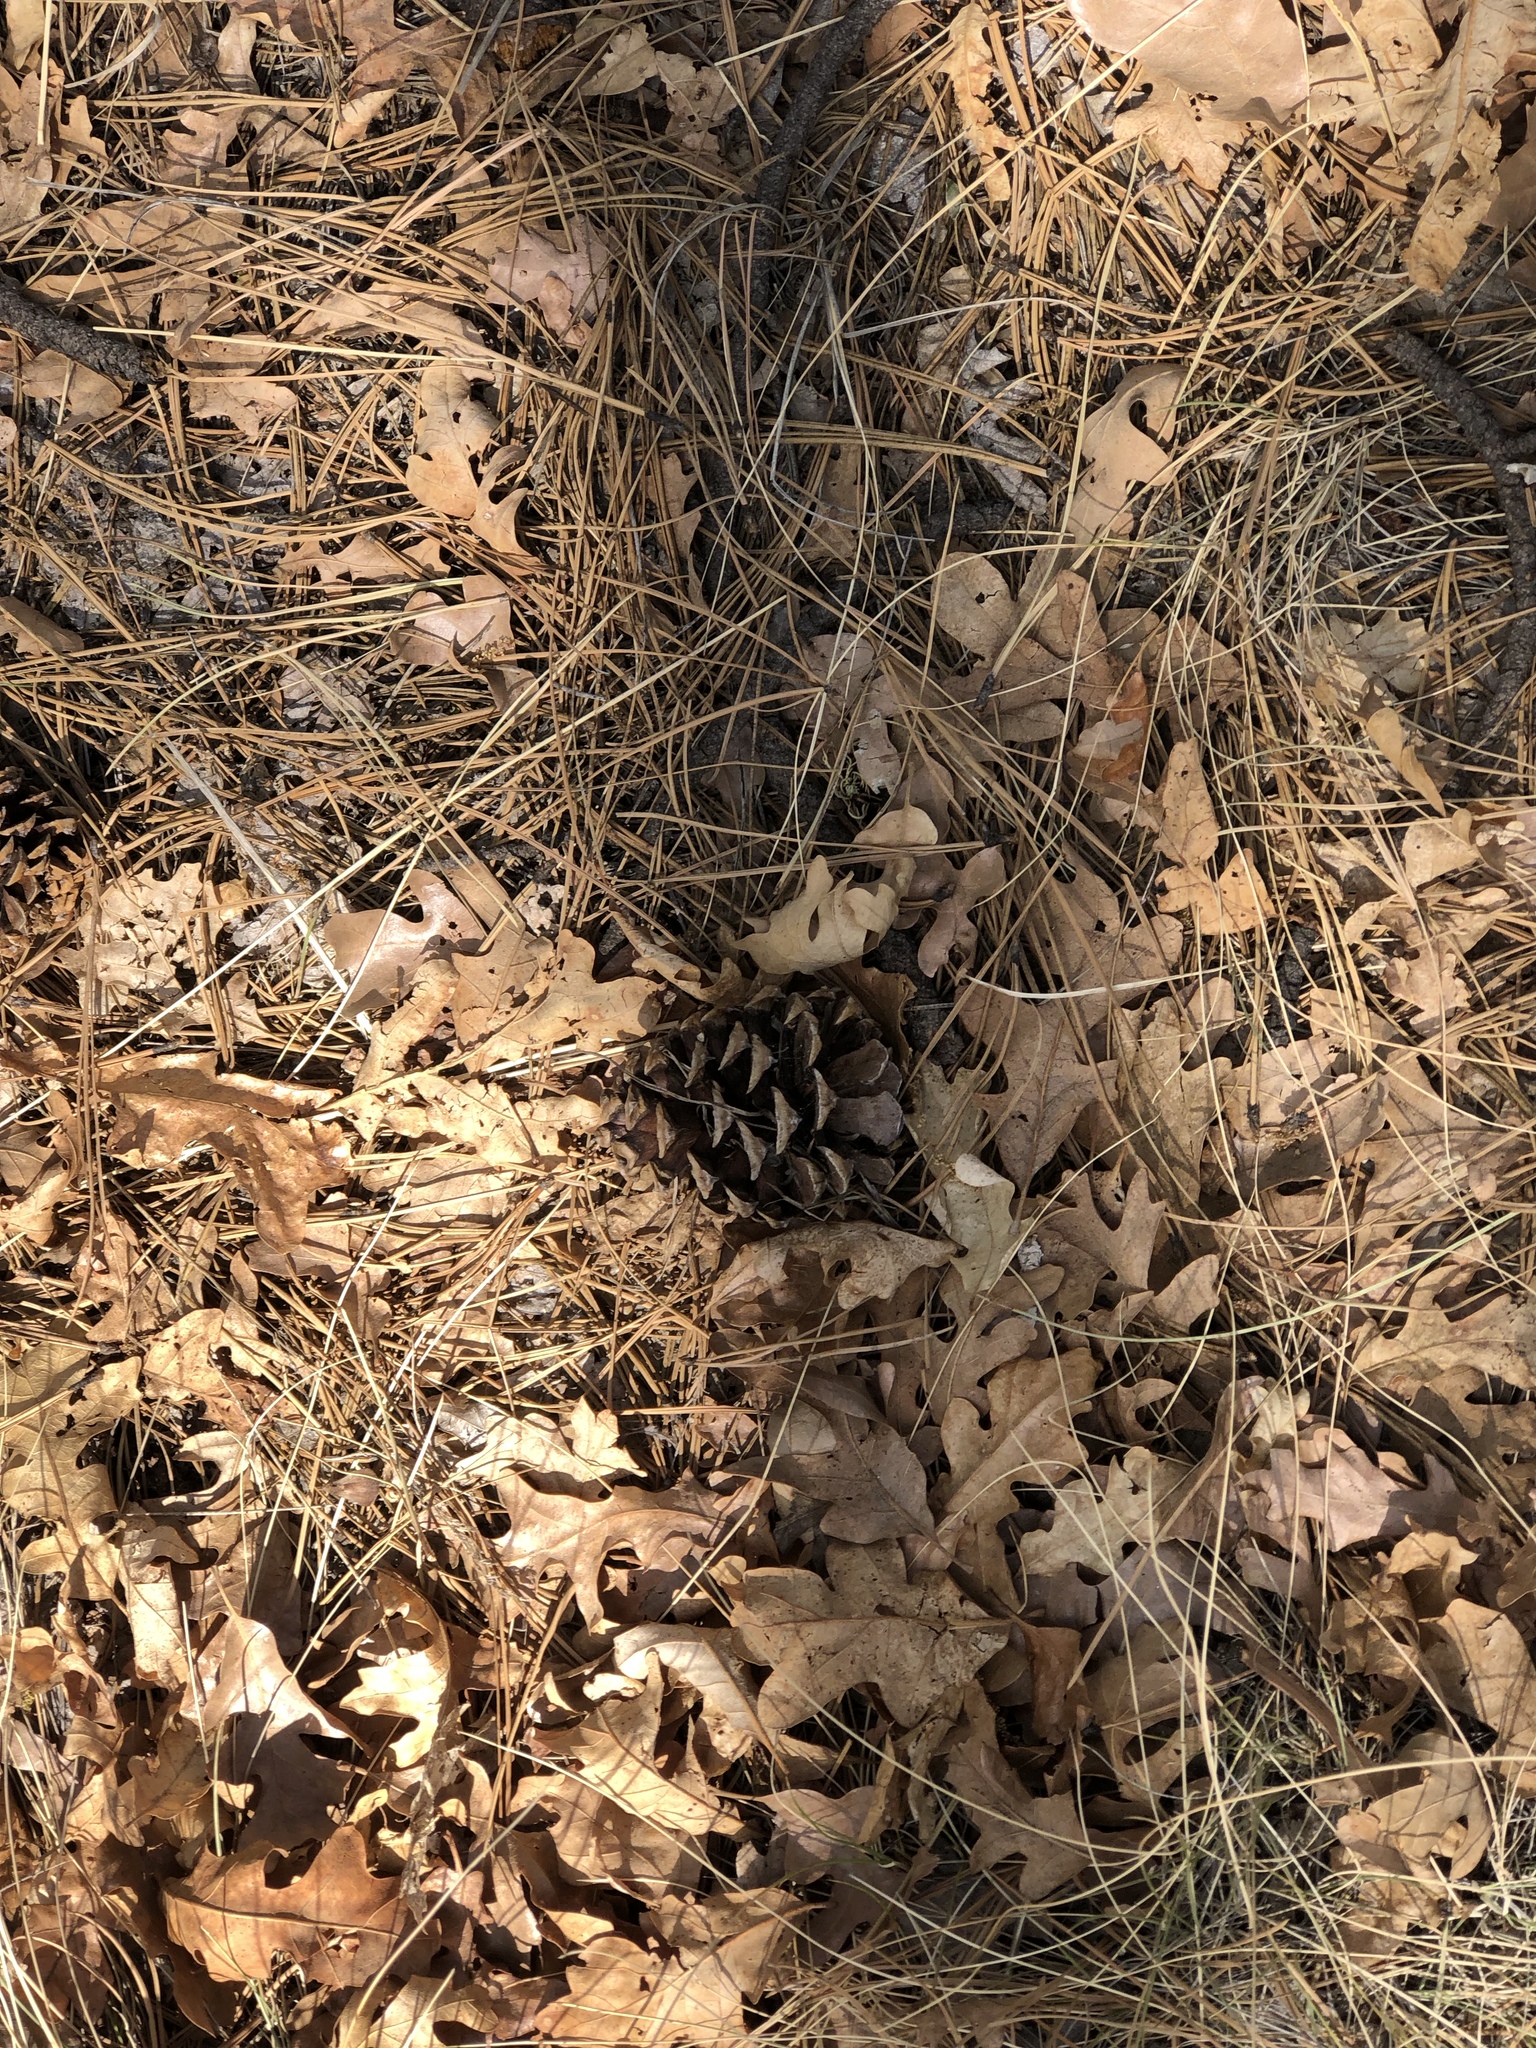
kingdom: Plantae
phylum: Tracheophyta
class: Pinopsida
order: Pinales
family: Pinaceae
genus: Pinus
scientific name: Pinus ponderosa
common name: Western yellow-pine
